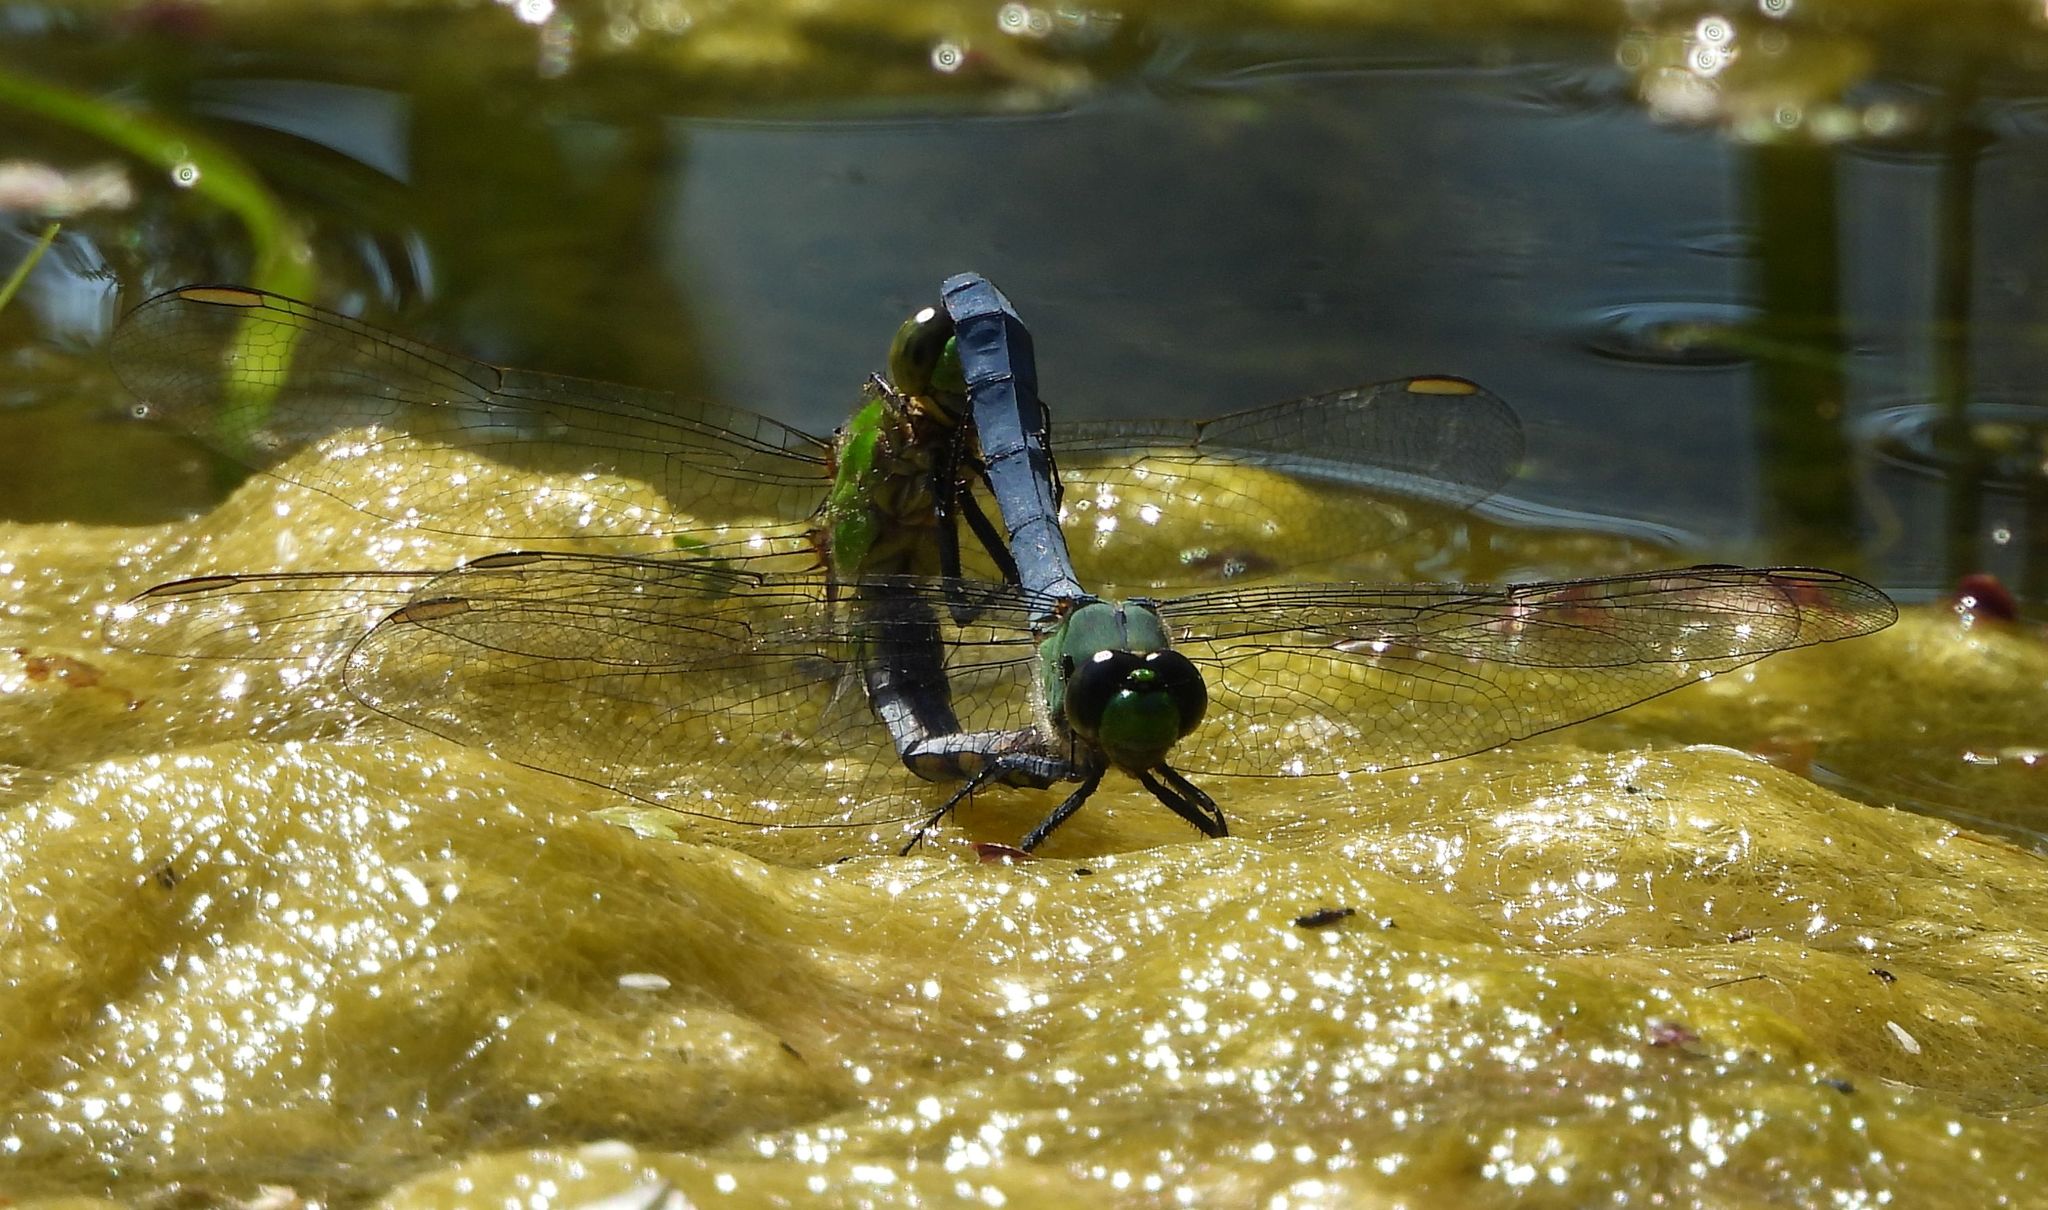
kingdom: Animalia
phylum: Arthropoda
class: Insecta
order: Odonata
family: Libellulidae
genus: Erythemis
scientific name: Erythemis simplicicollis
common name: Eastern pondhawk
